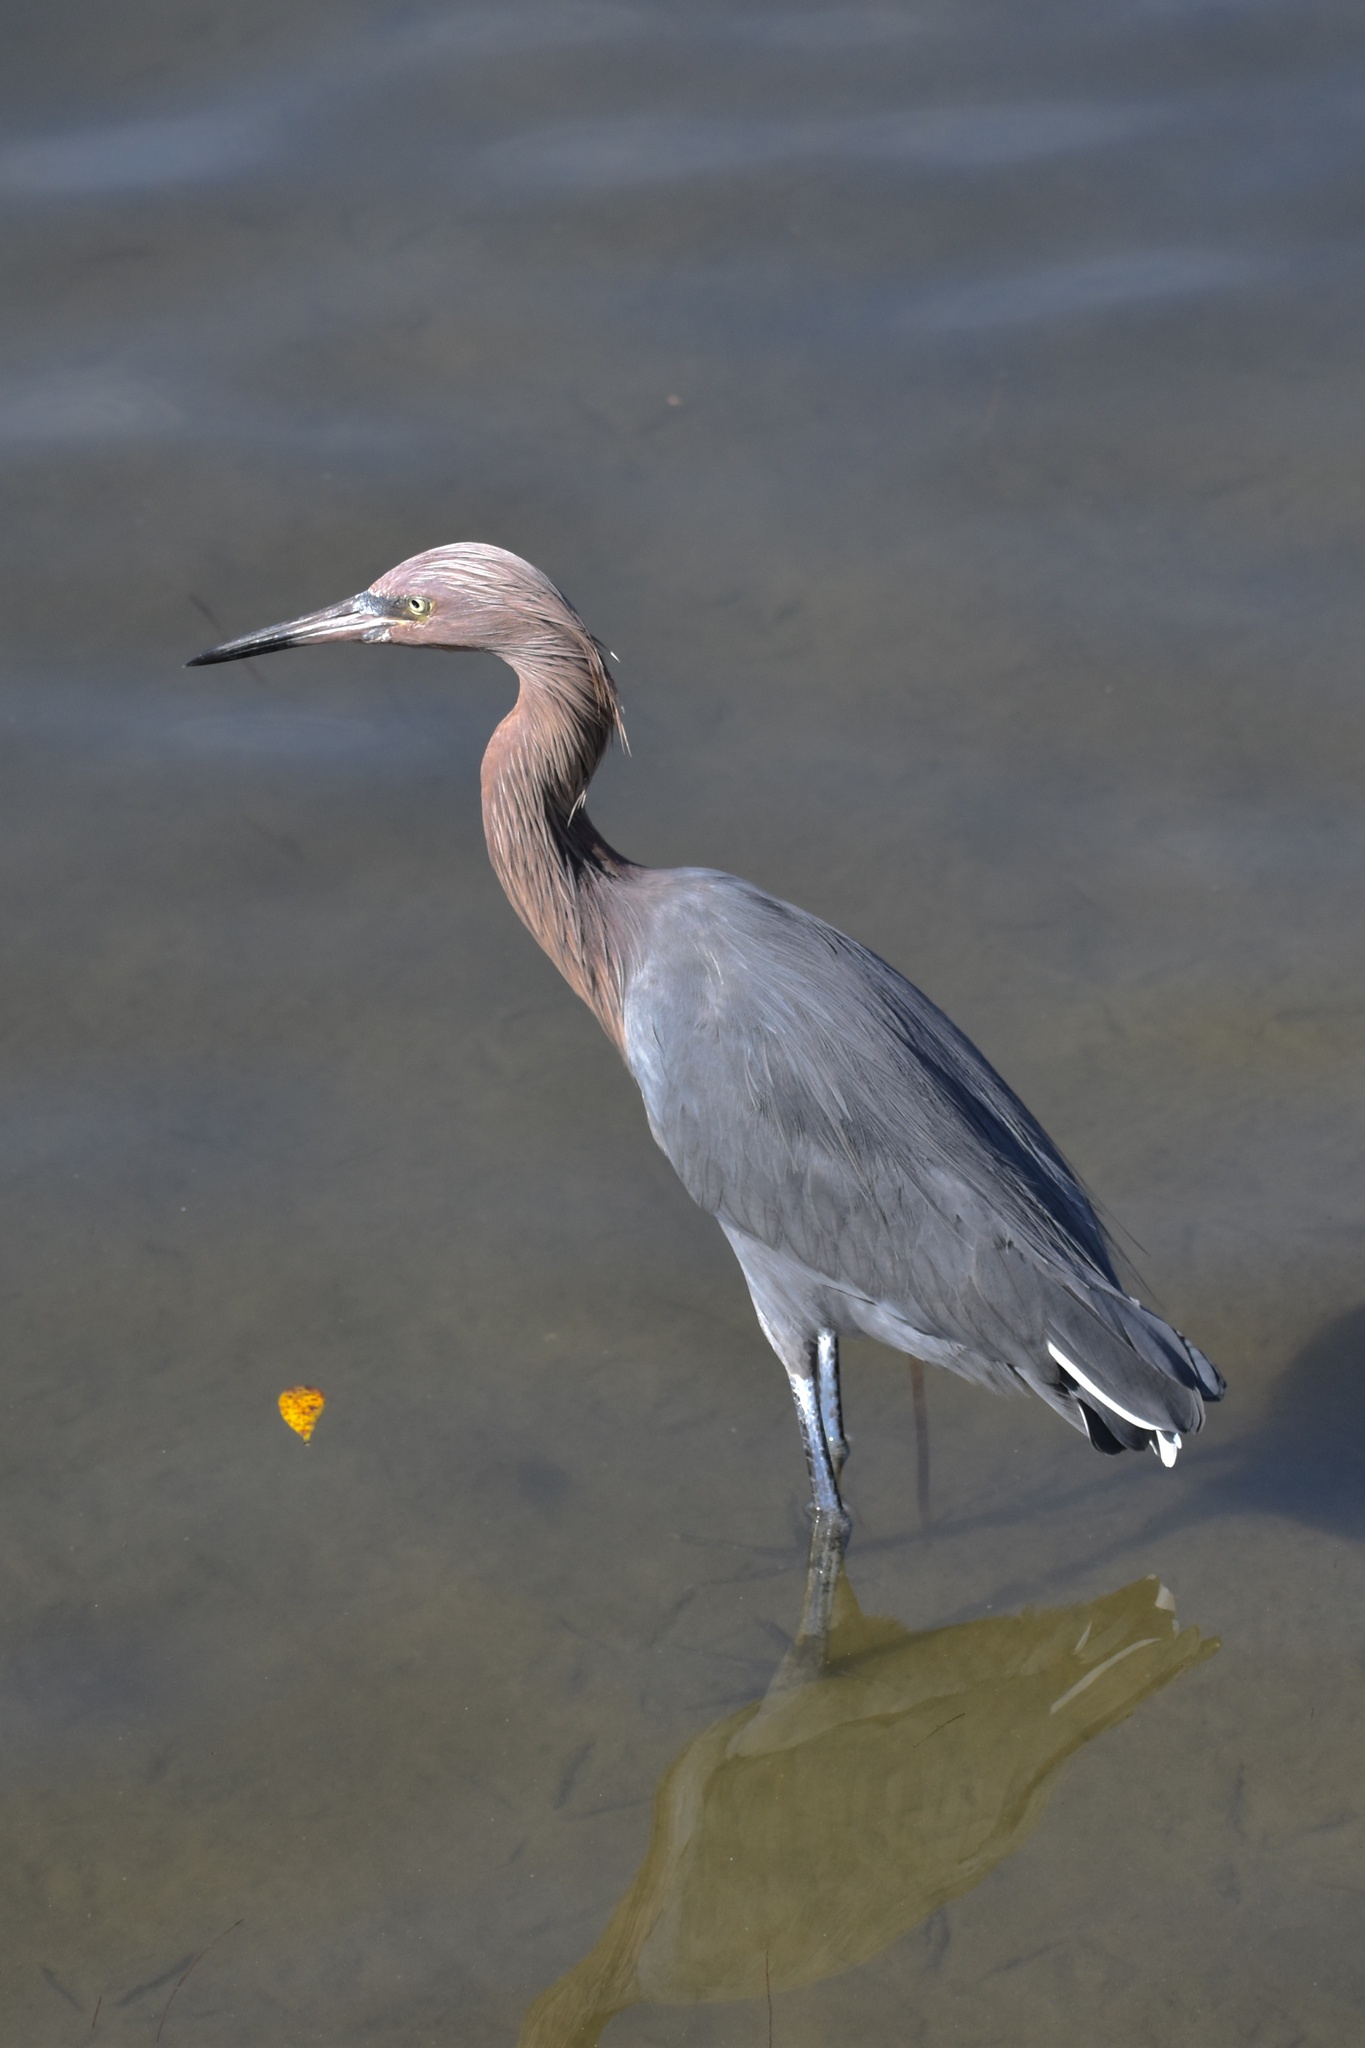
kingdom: Animalia
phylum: Chordata
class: Aves
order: Pelecaniformes
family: Ardeidae
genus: Egretta
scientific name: Egretta rufescens
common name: Reddish egret
